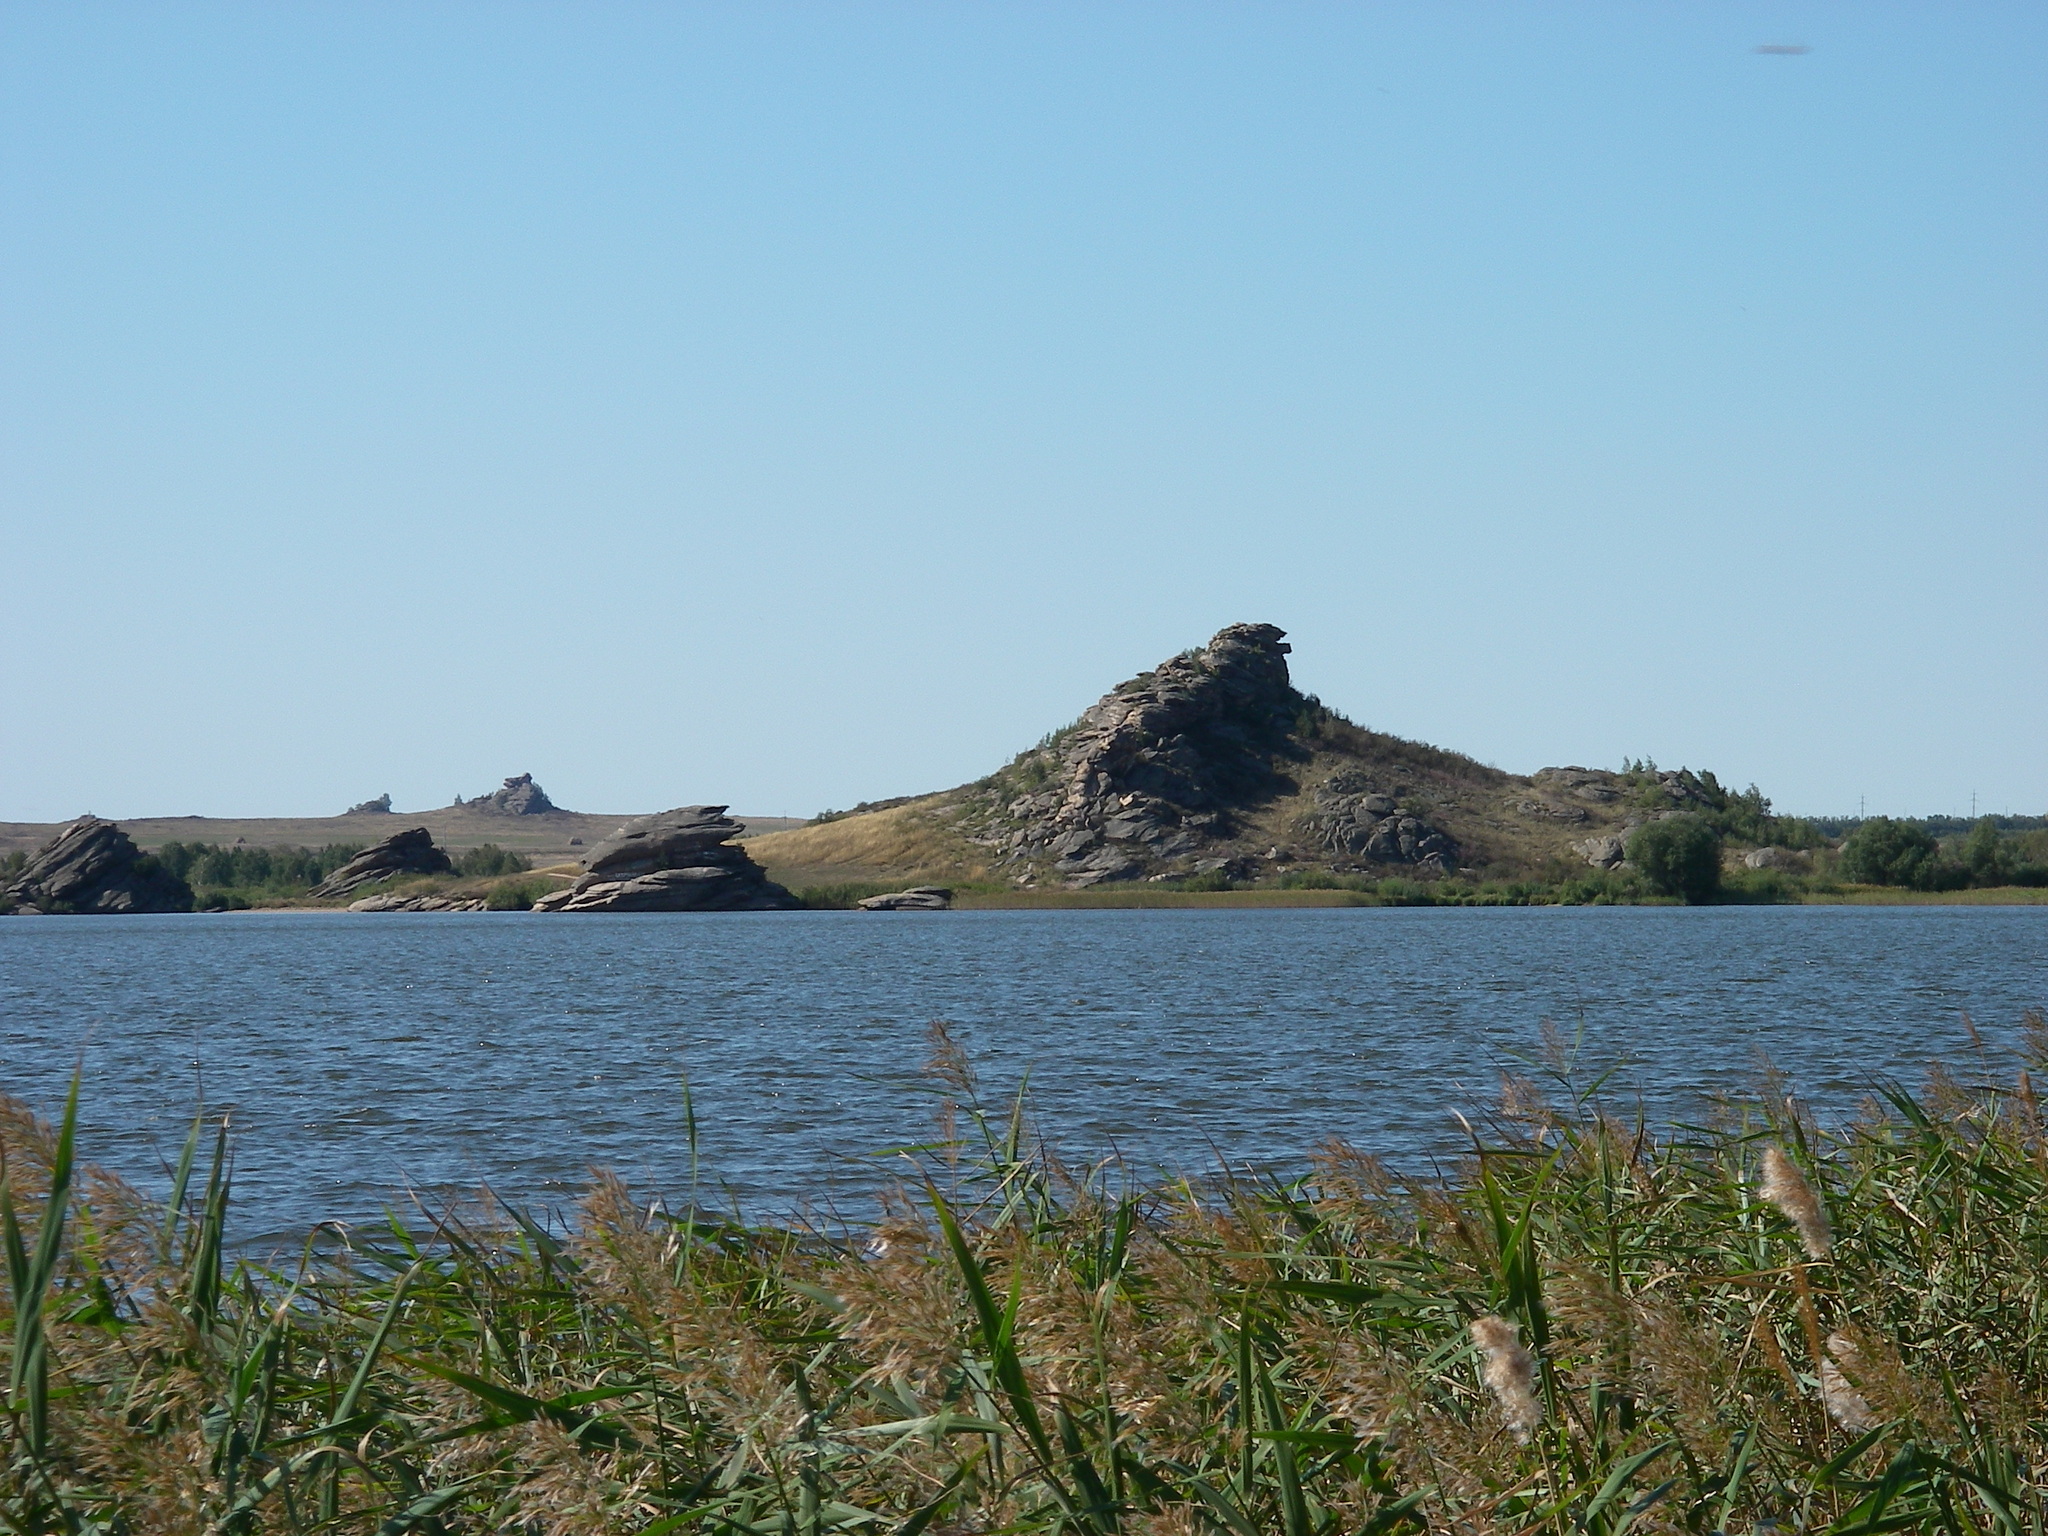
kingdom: Plantae
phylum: Tracheophyta
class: Liliopsida
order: Poales
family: Poaceae
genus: Phragmites
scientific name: Phragmites australis
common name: Common reed
